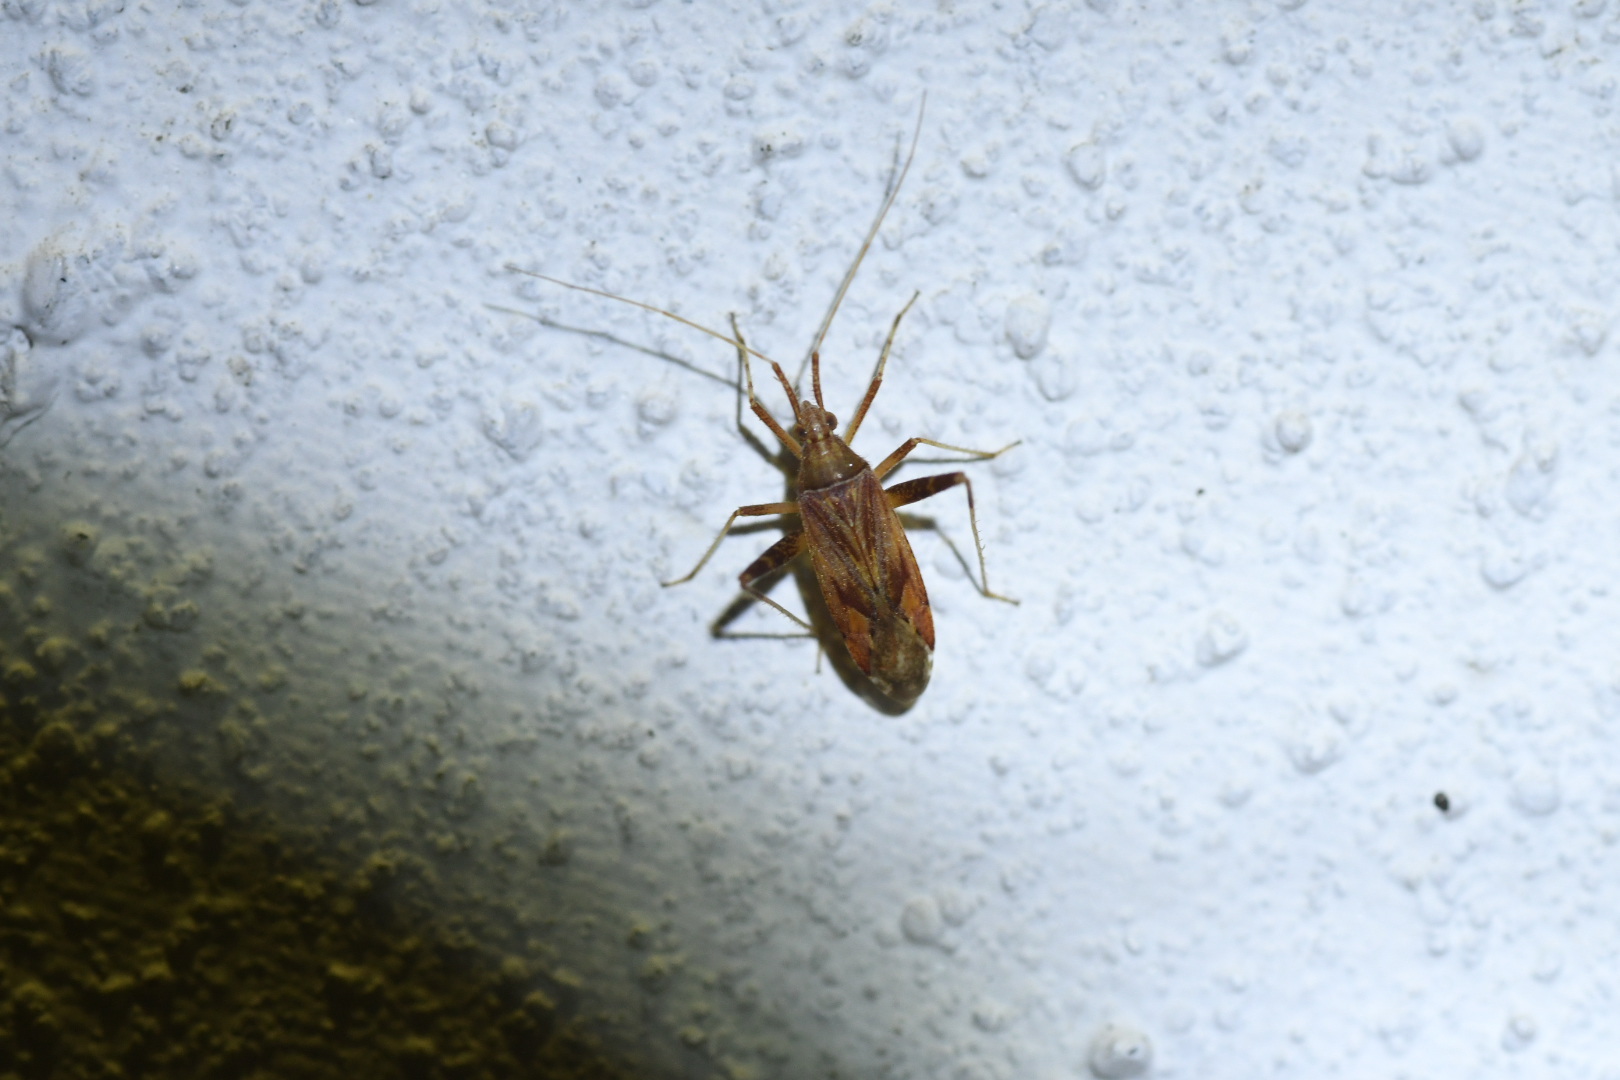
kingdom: Animalia
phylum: Arthropoda
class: Insecta
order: Hemiptera
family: Miridae
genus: Phytocoris
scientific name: Phytocoris varipes
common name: Plant bug
